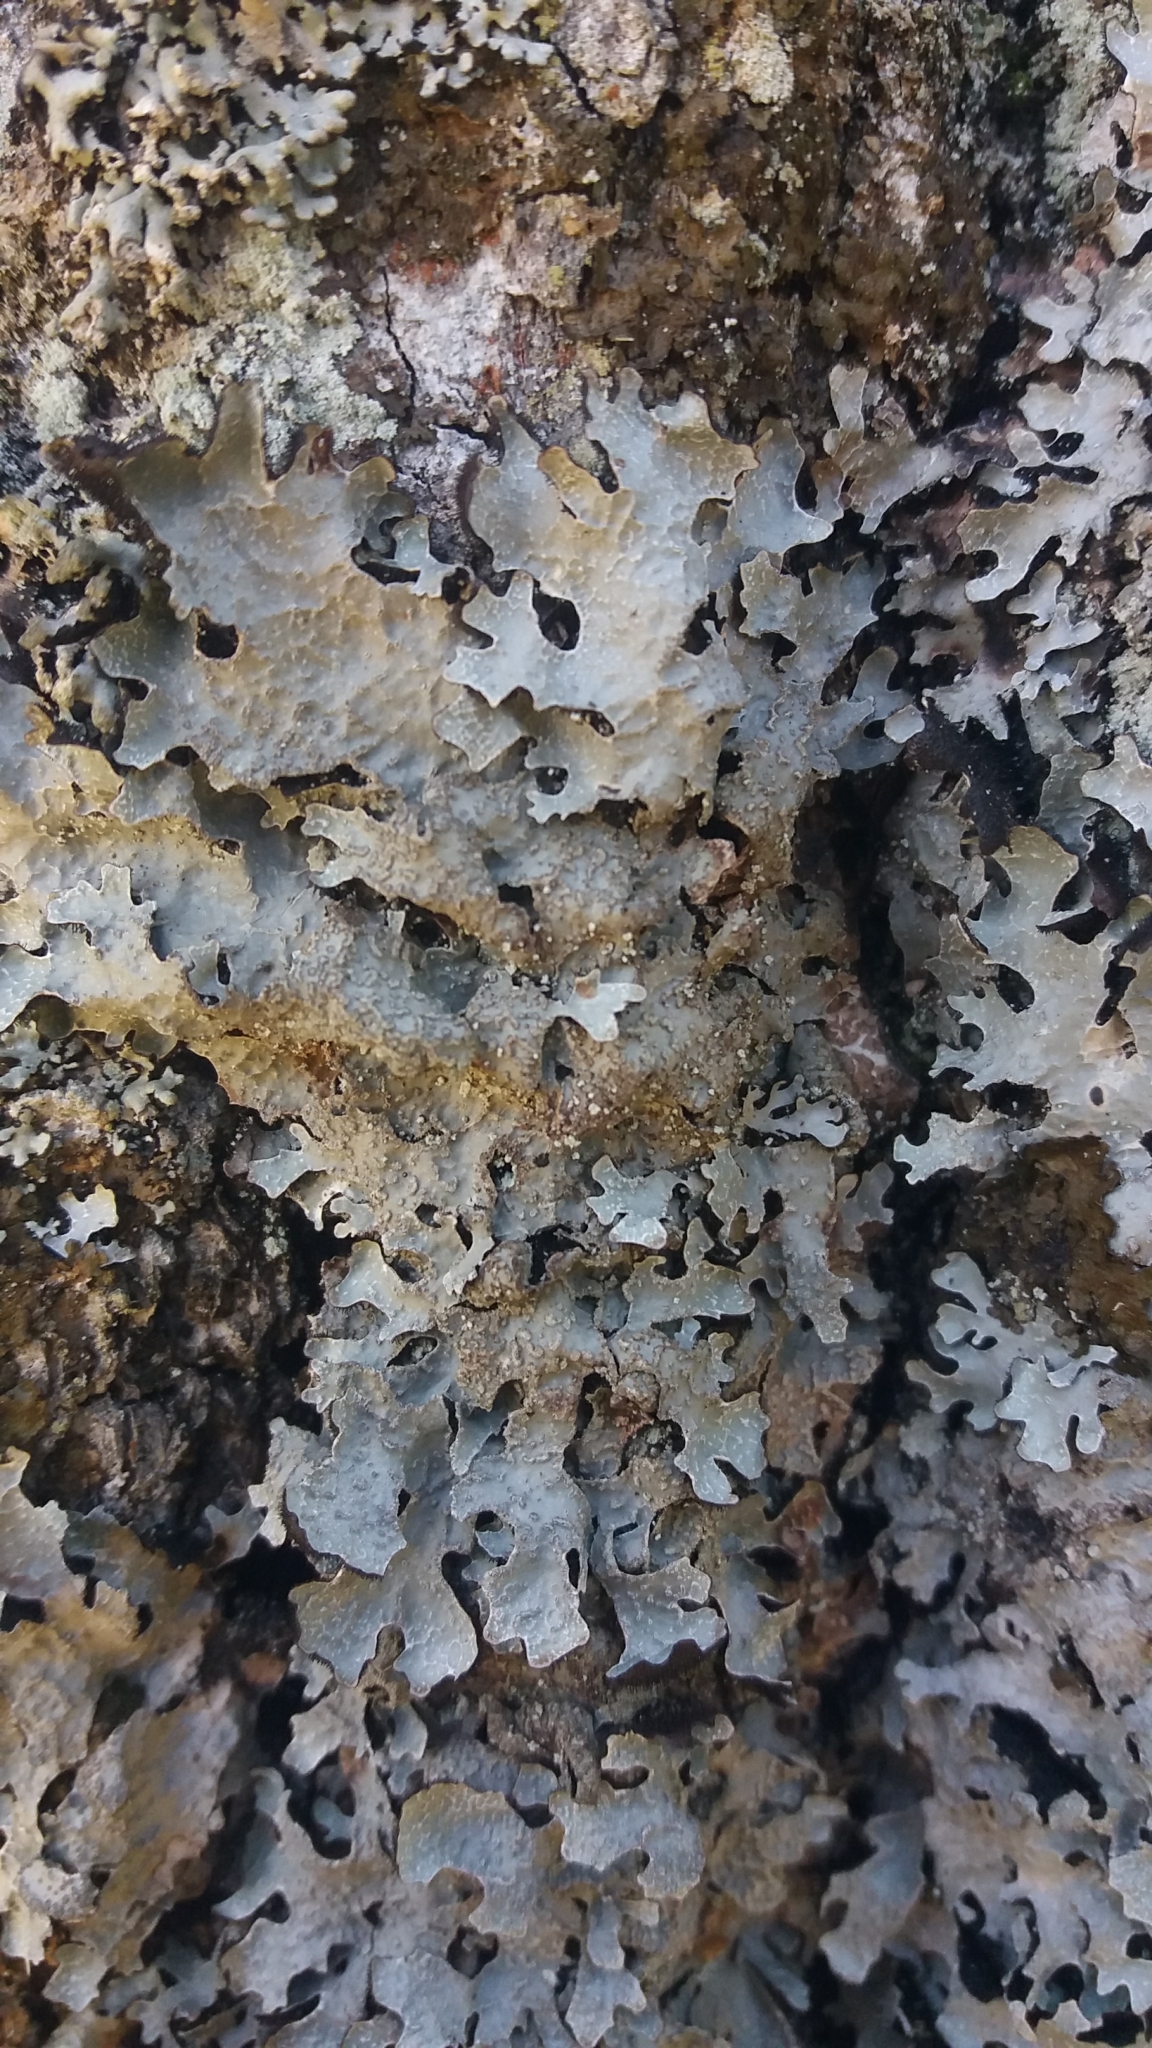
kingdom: Fungi
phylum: Ascomycota
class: Lecanoromycetes
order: Lecanorales
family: Parmeliaceae
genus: Parmelia
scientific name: Parmelia sulcata
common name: Netted shield lichen
